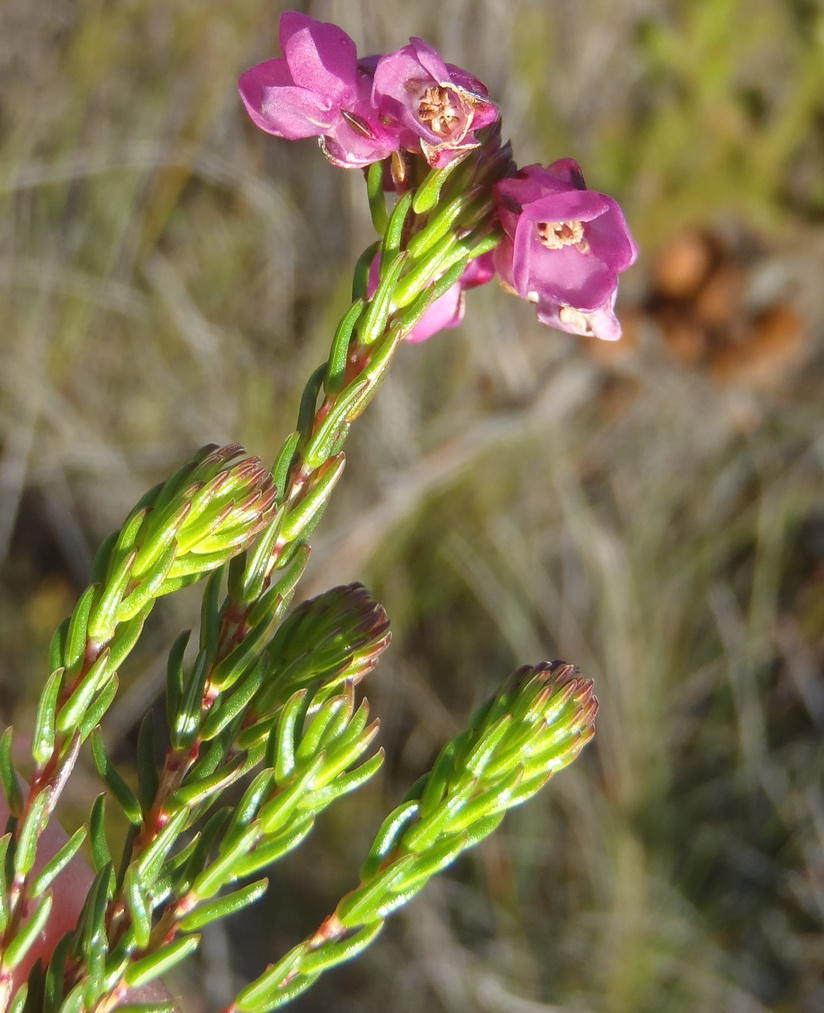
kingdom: Plantae
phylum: Tracheophyta
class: Magnoliopsida
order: Ericales
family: Ericaceae
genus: Erica
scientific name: Erica cubica
